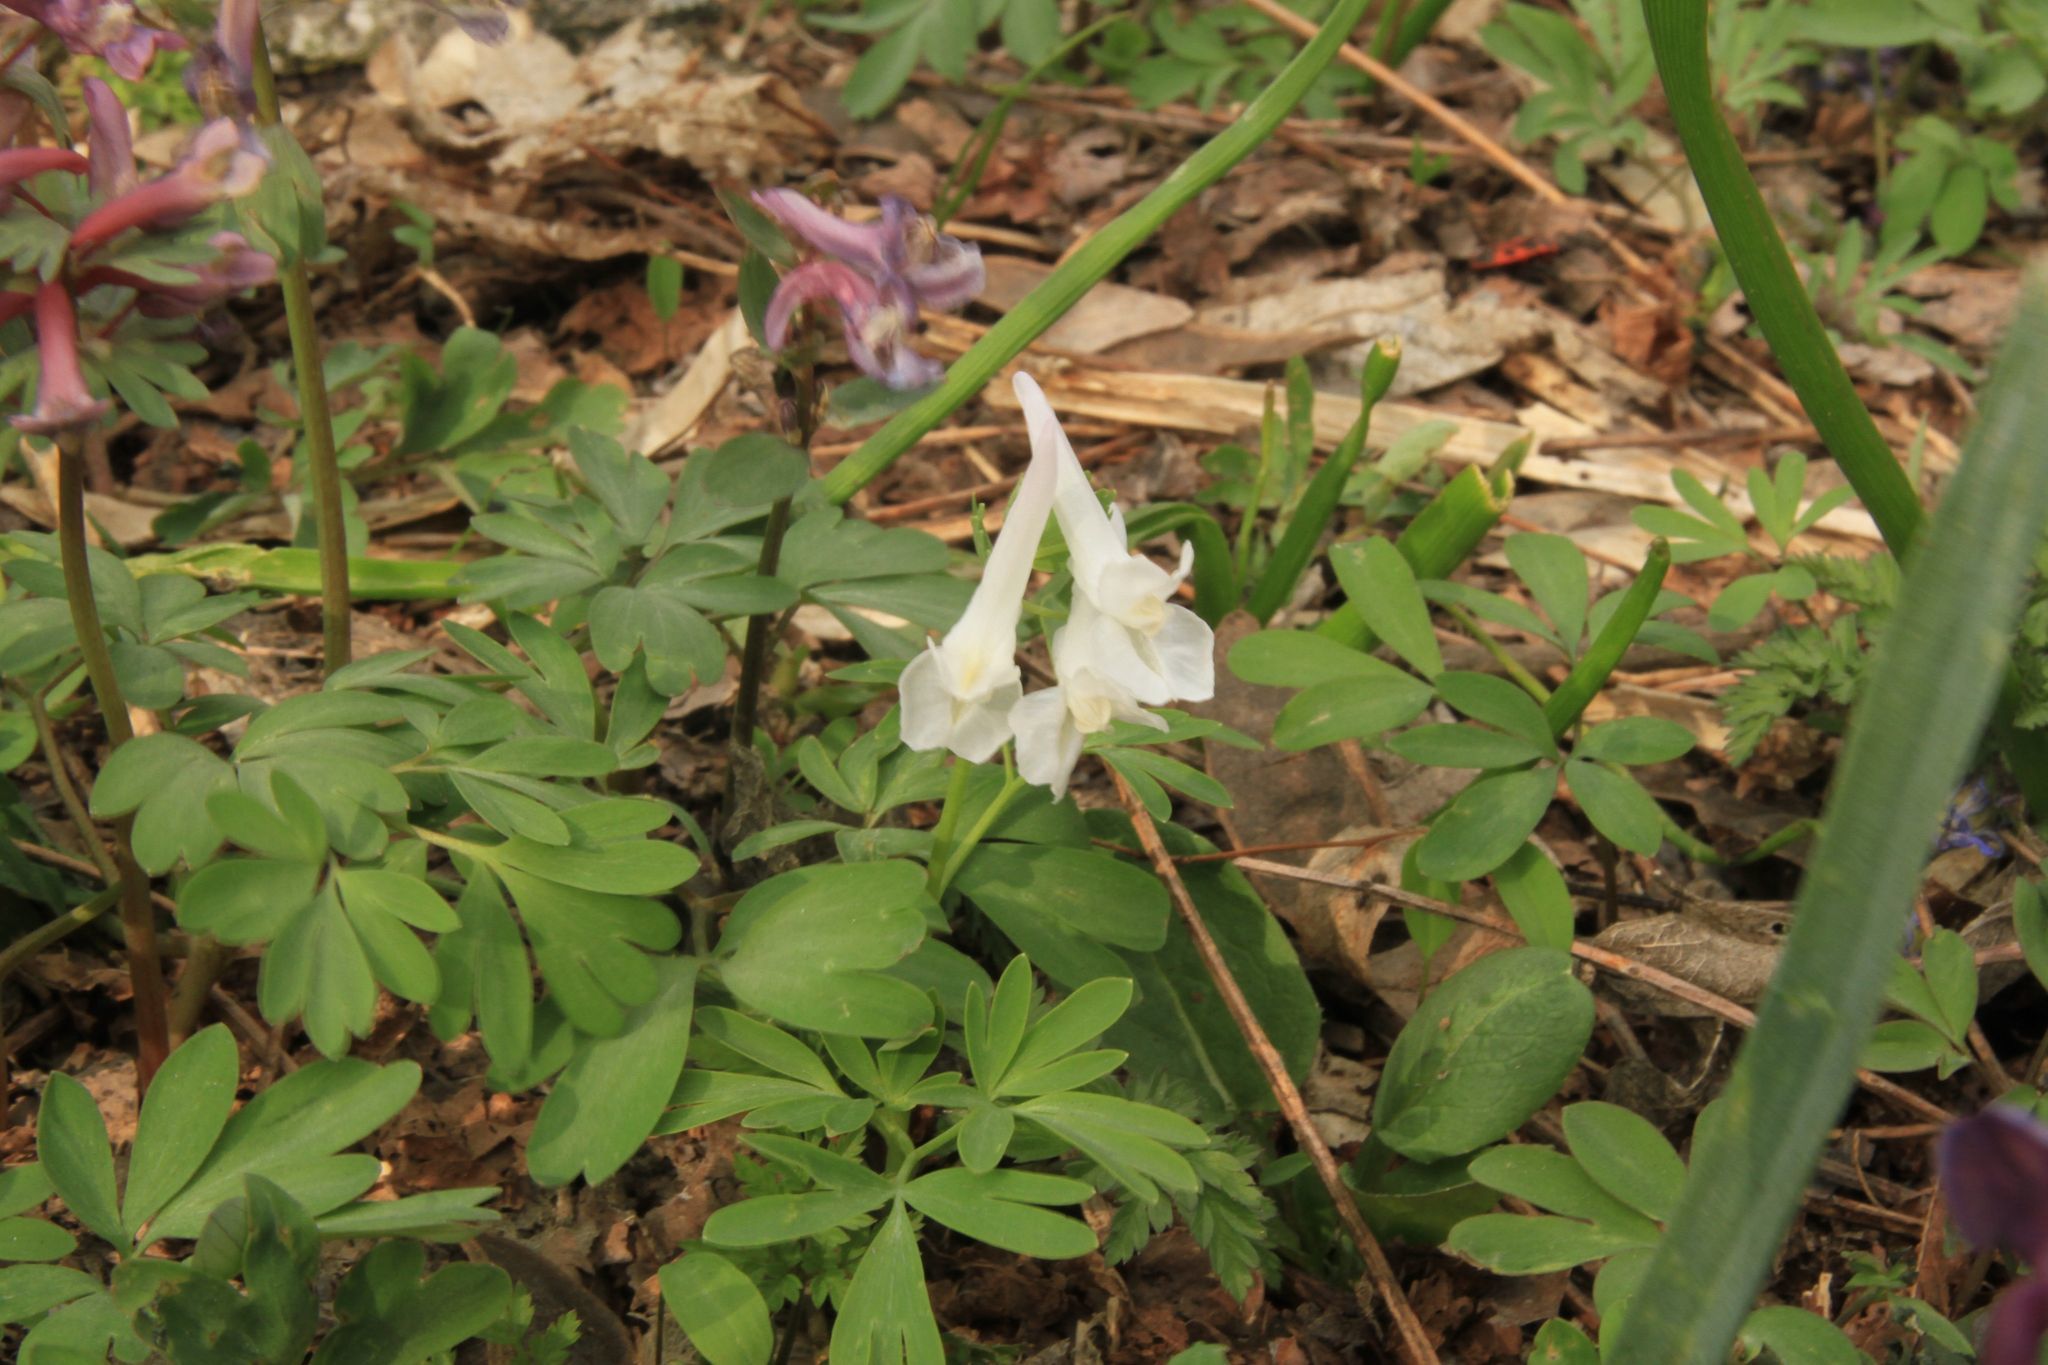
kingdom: Plantae
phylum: Tracheophyta
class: Magnoliopsida
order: Ranunculales
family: Papaveraceae
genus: Corydalis
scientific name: Corydalis cava
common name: Hollowroot
